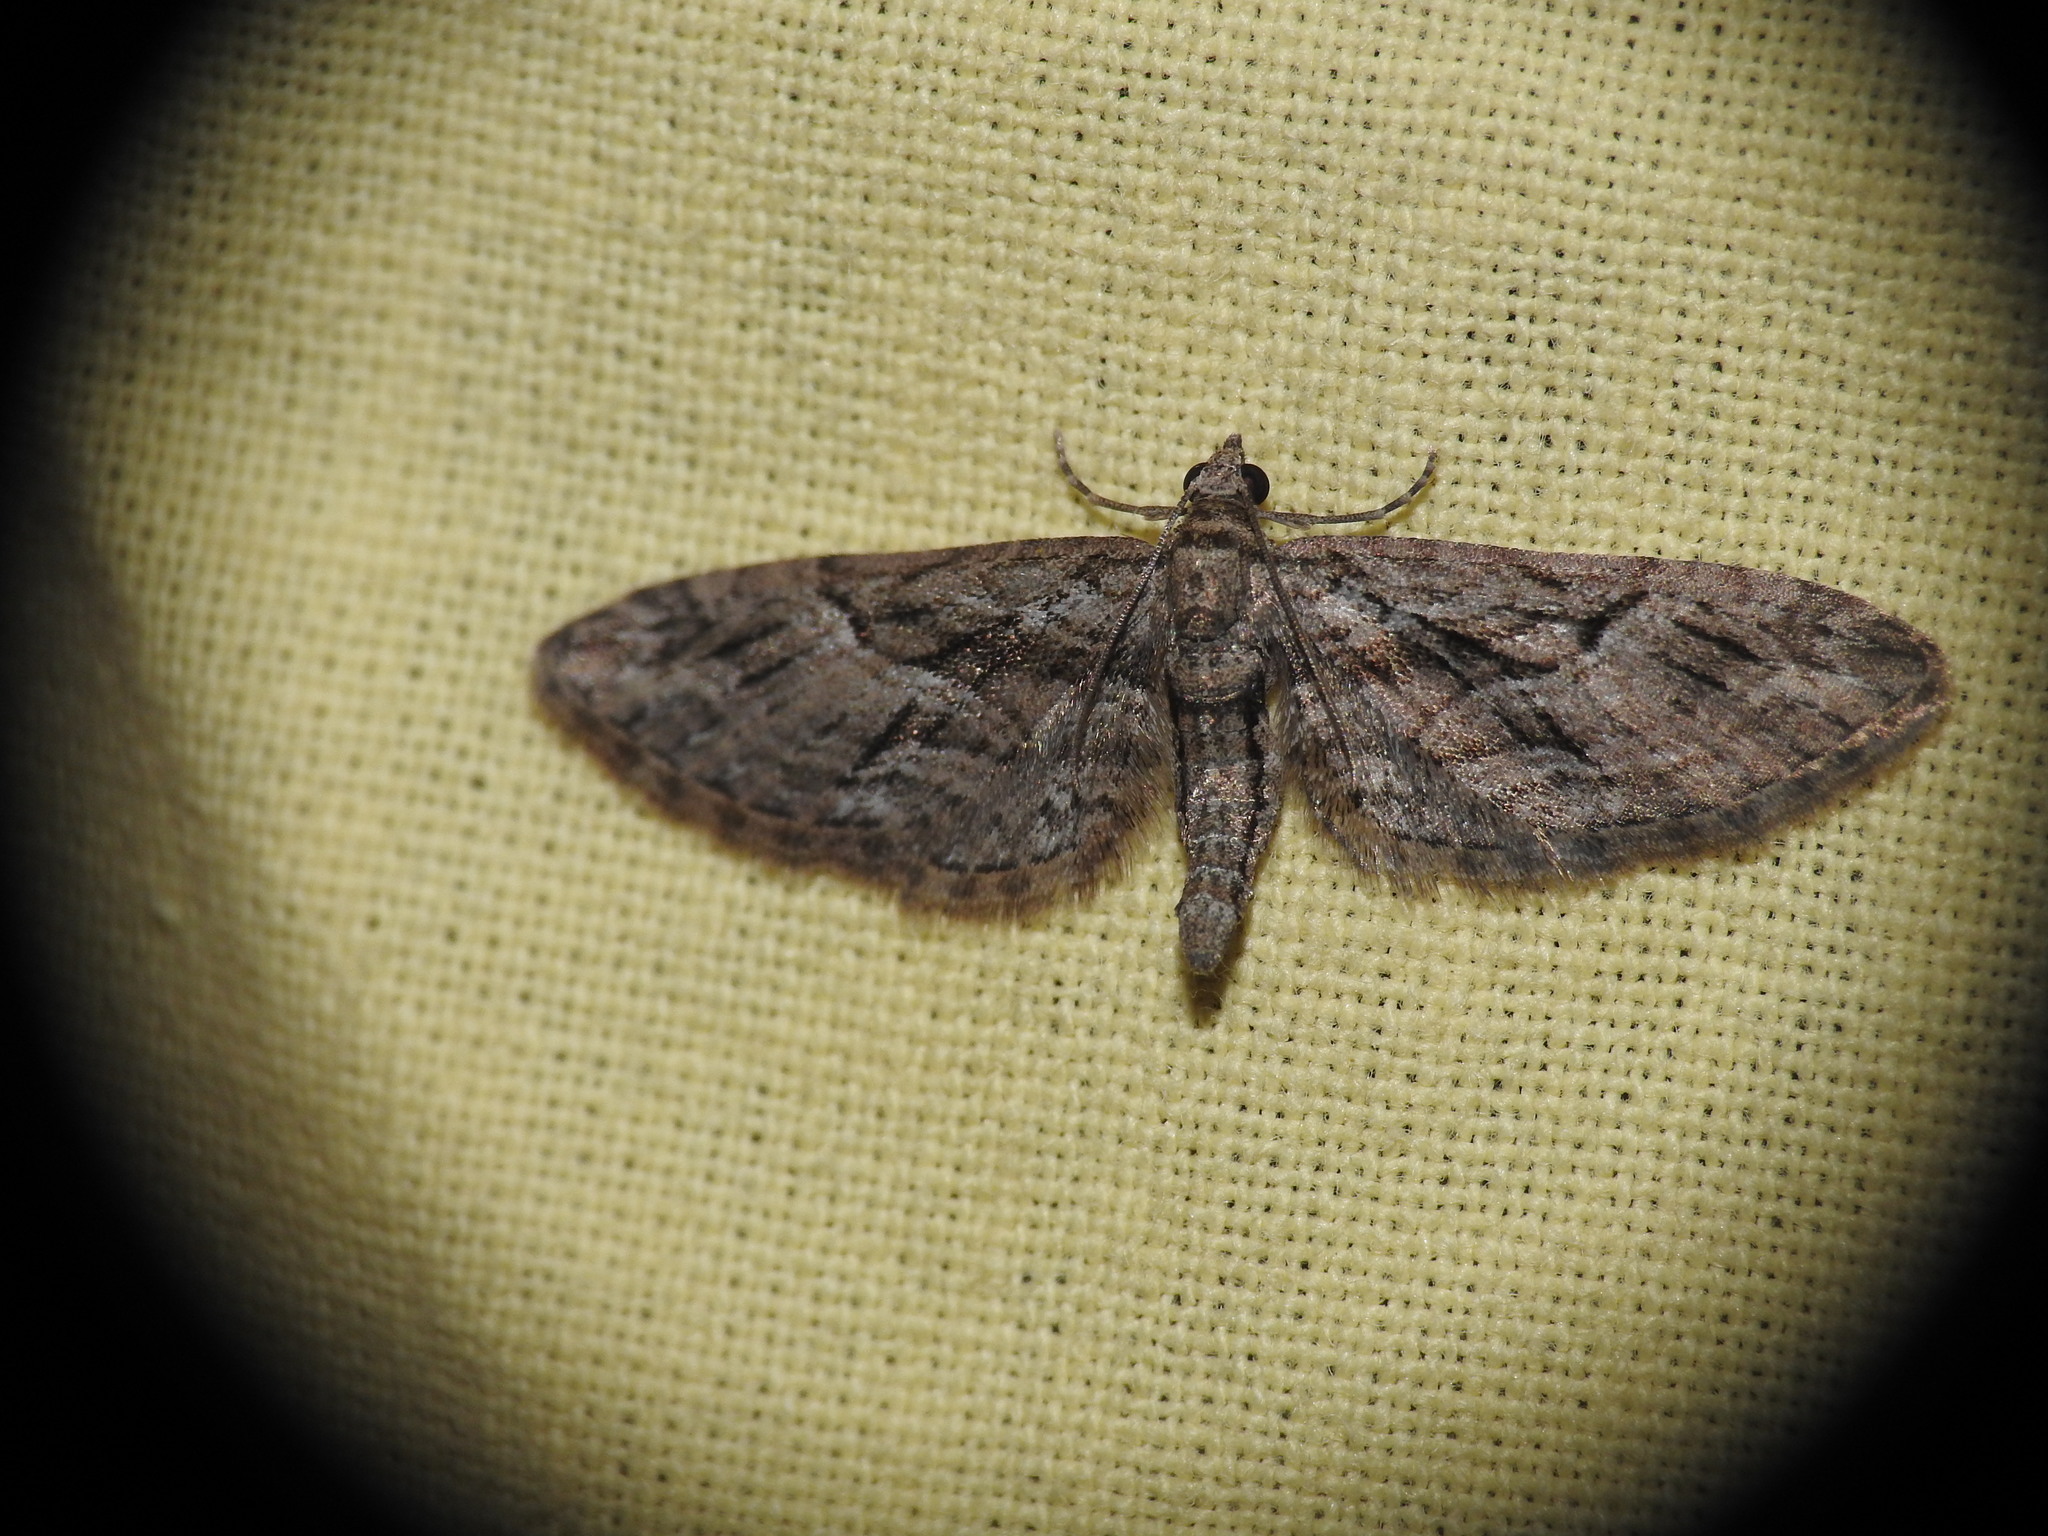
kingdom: Animalia
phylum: Arthropoda
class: Insecta
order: Lepidoptera
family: Geometridae
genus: Eupithecia
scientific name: Eupithecia oxycedrata
